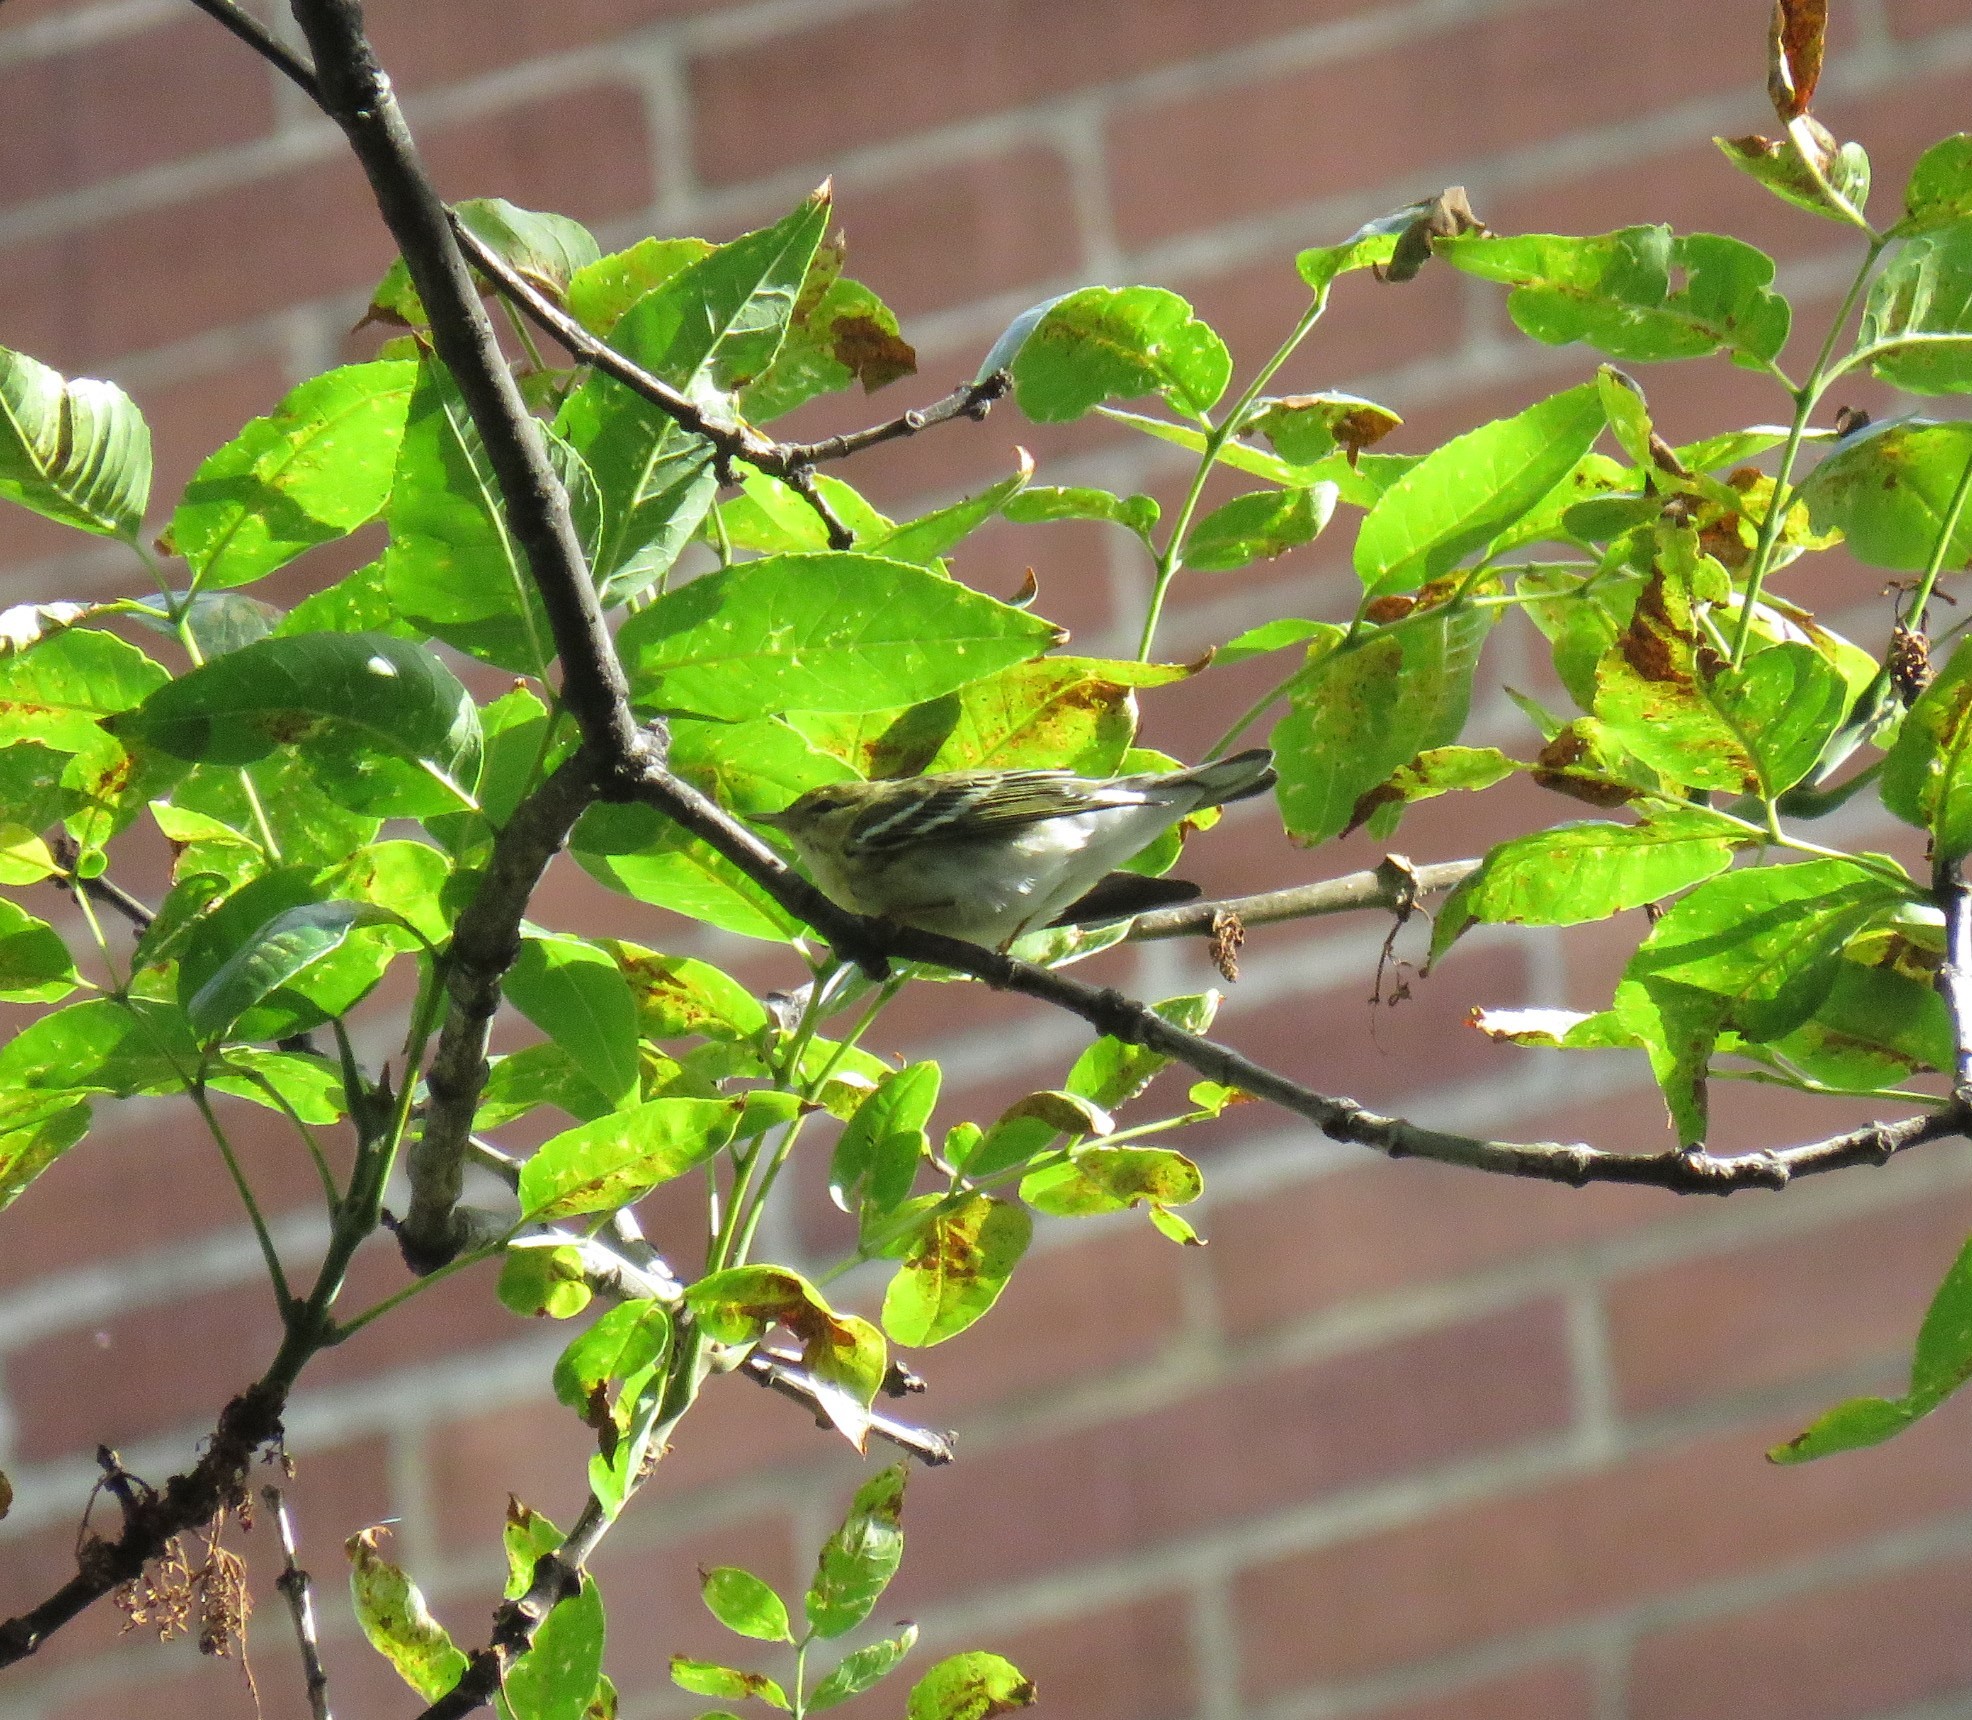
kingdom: Animalia
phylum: Chordata
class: Aves
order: Passeriformes
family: Parulidae
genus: Setophaga
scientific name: Setophaga striata
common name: Blackpoll warbler
